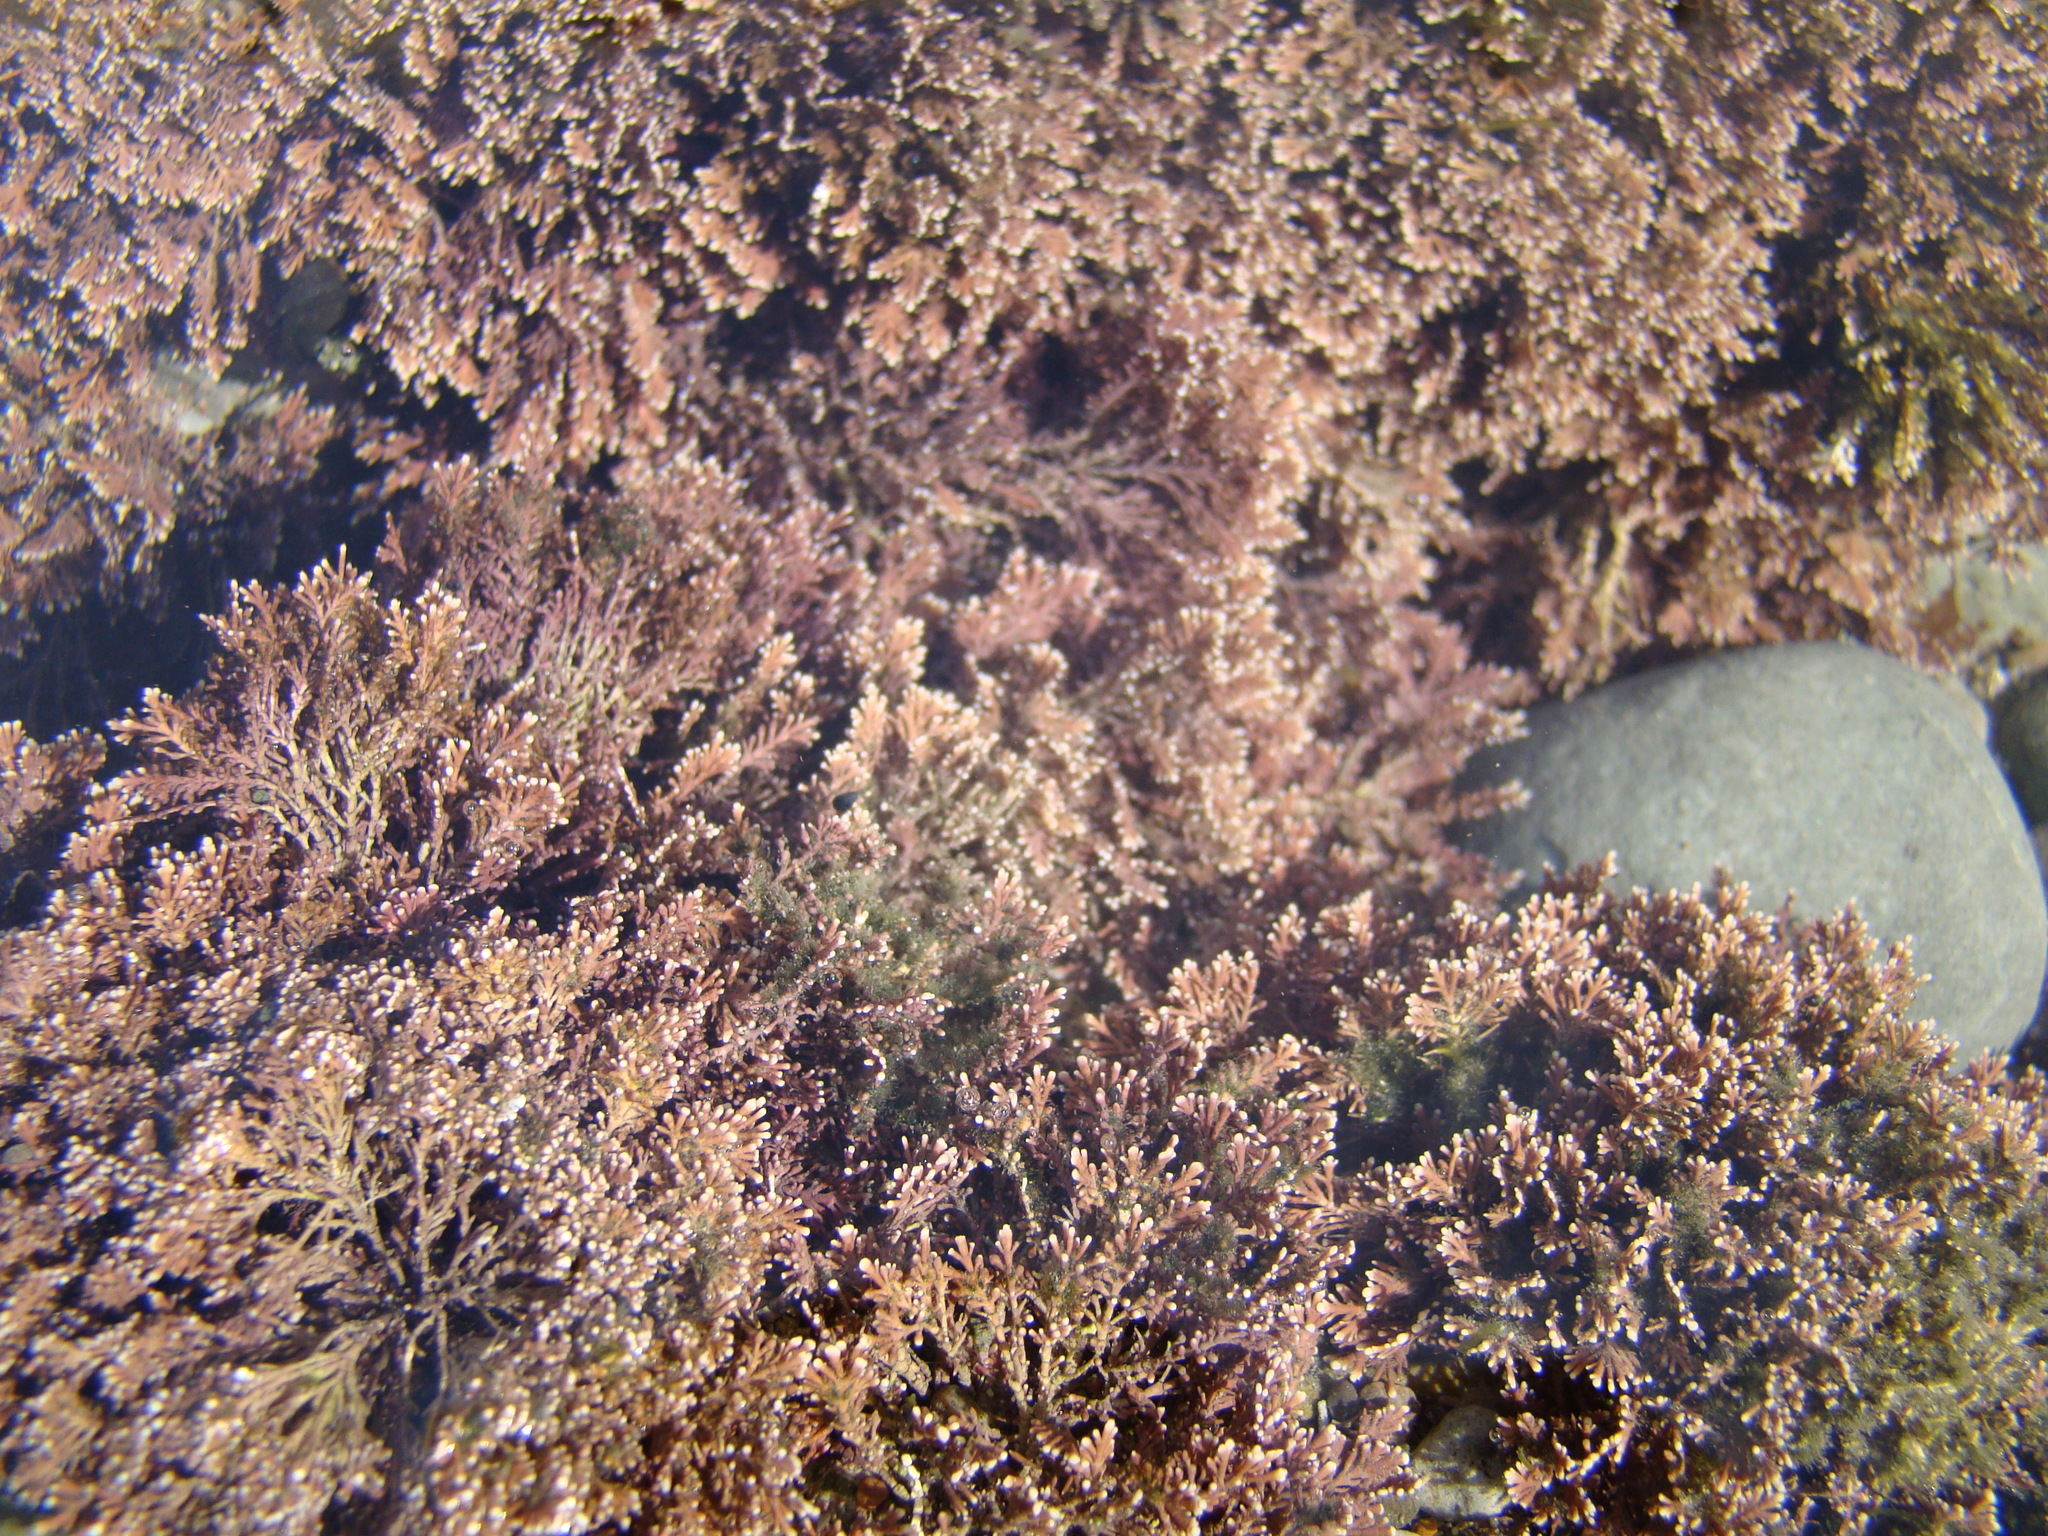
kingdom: Plantae
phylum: Rhodophyta
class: Florideophyceae
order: Corallinales
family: Corallinaceae
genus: Corallina
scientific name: Corallina officinalis
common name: Coral weed
